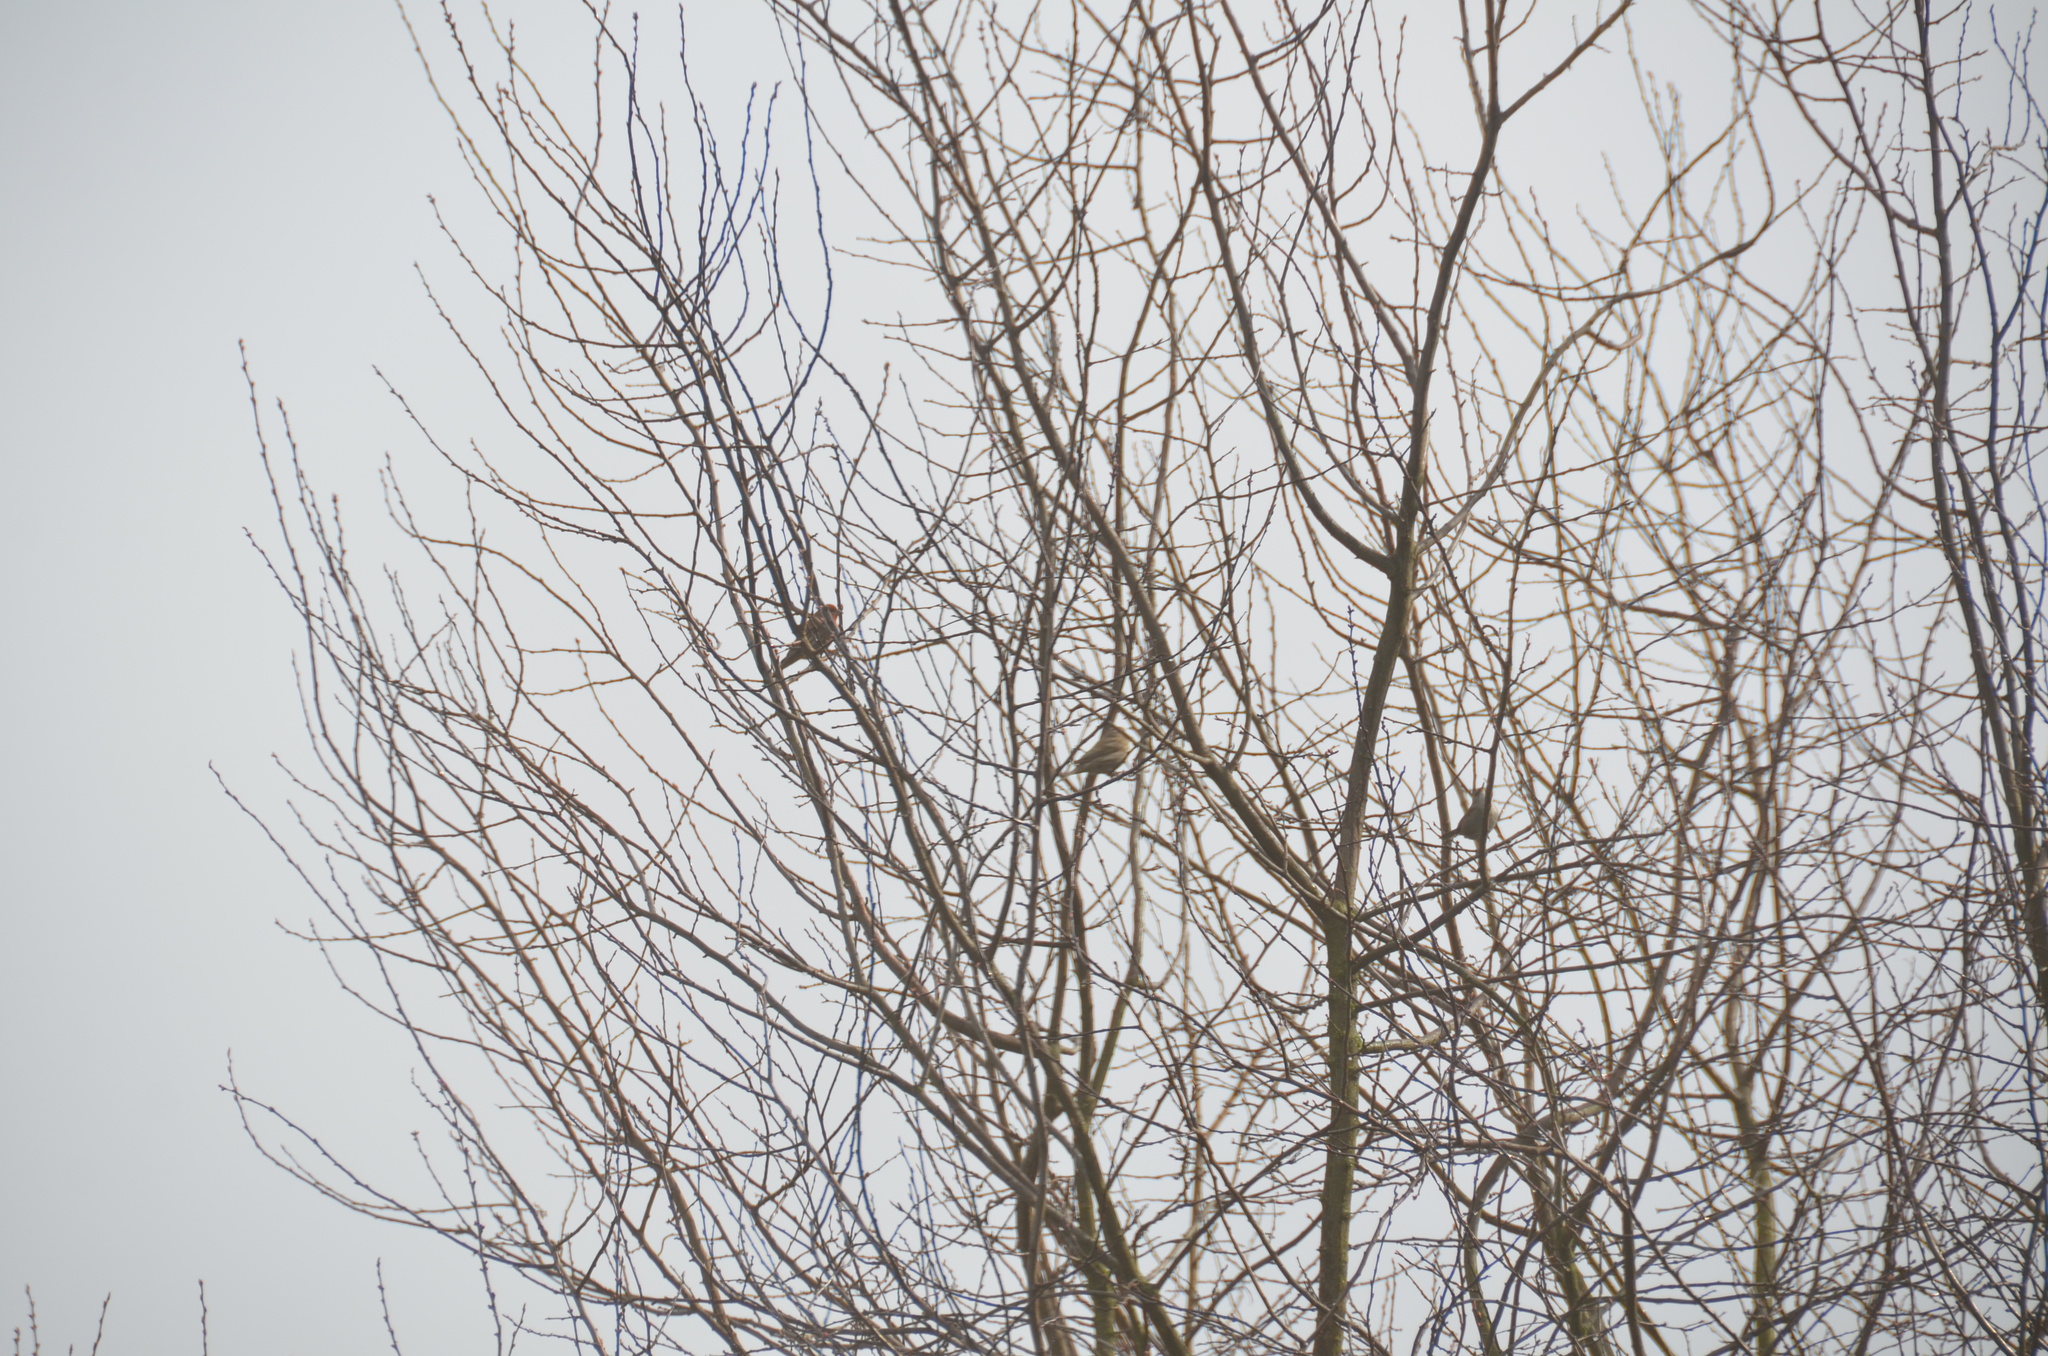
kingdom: Animalia
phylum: Chordata
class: Aves
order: Passeriformes
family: Troglodytidae
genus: Thryomanes
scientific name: Thryomanes bewickii
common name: Bewick's wren
